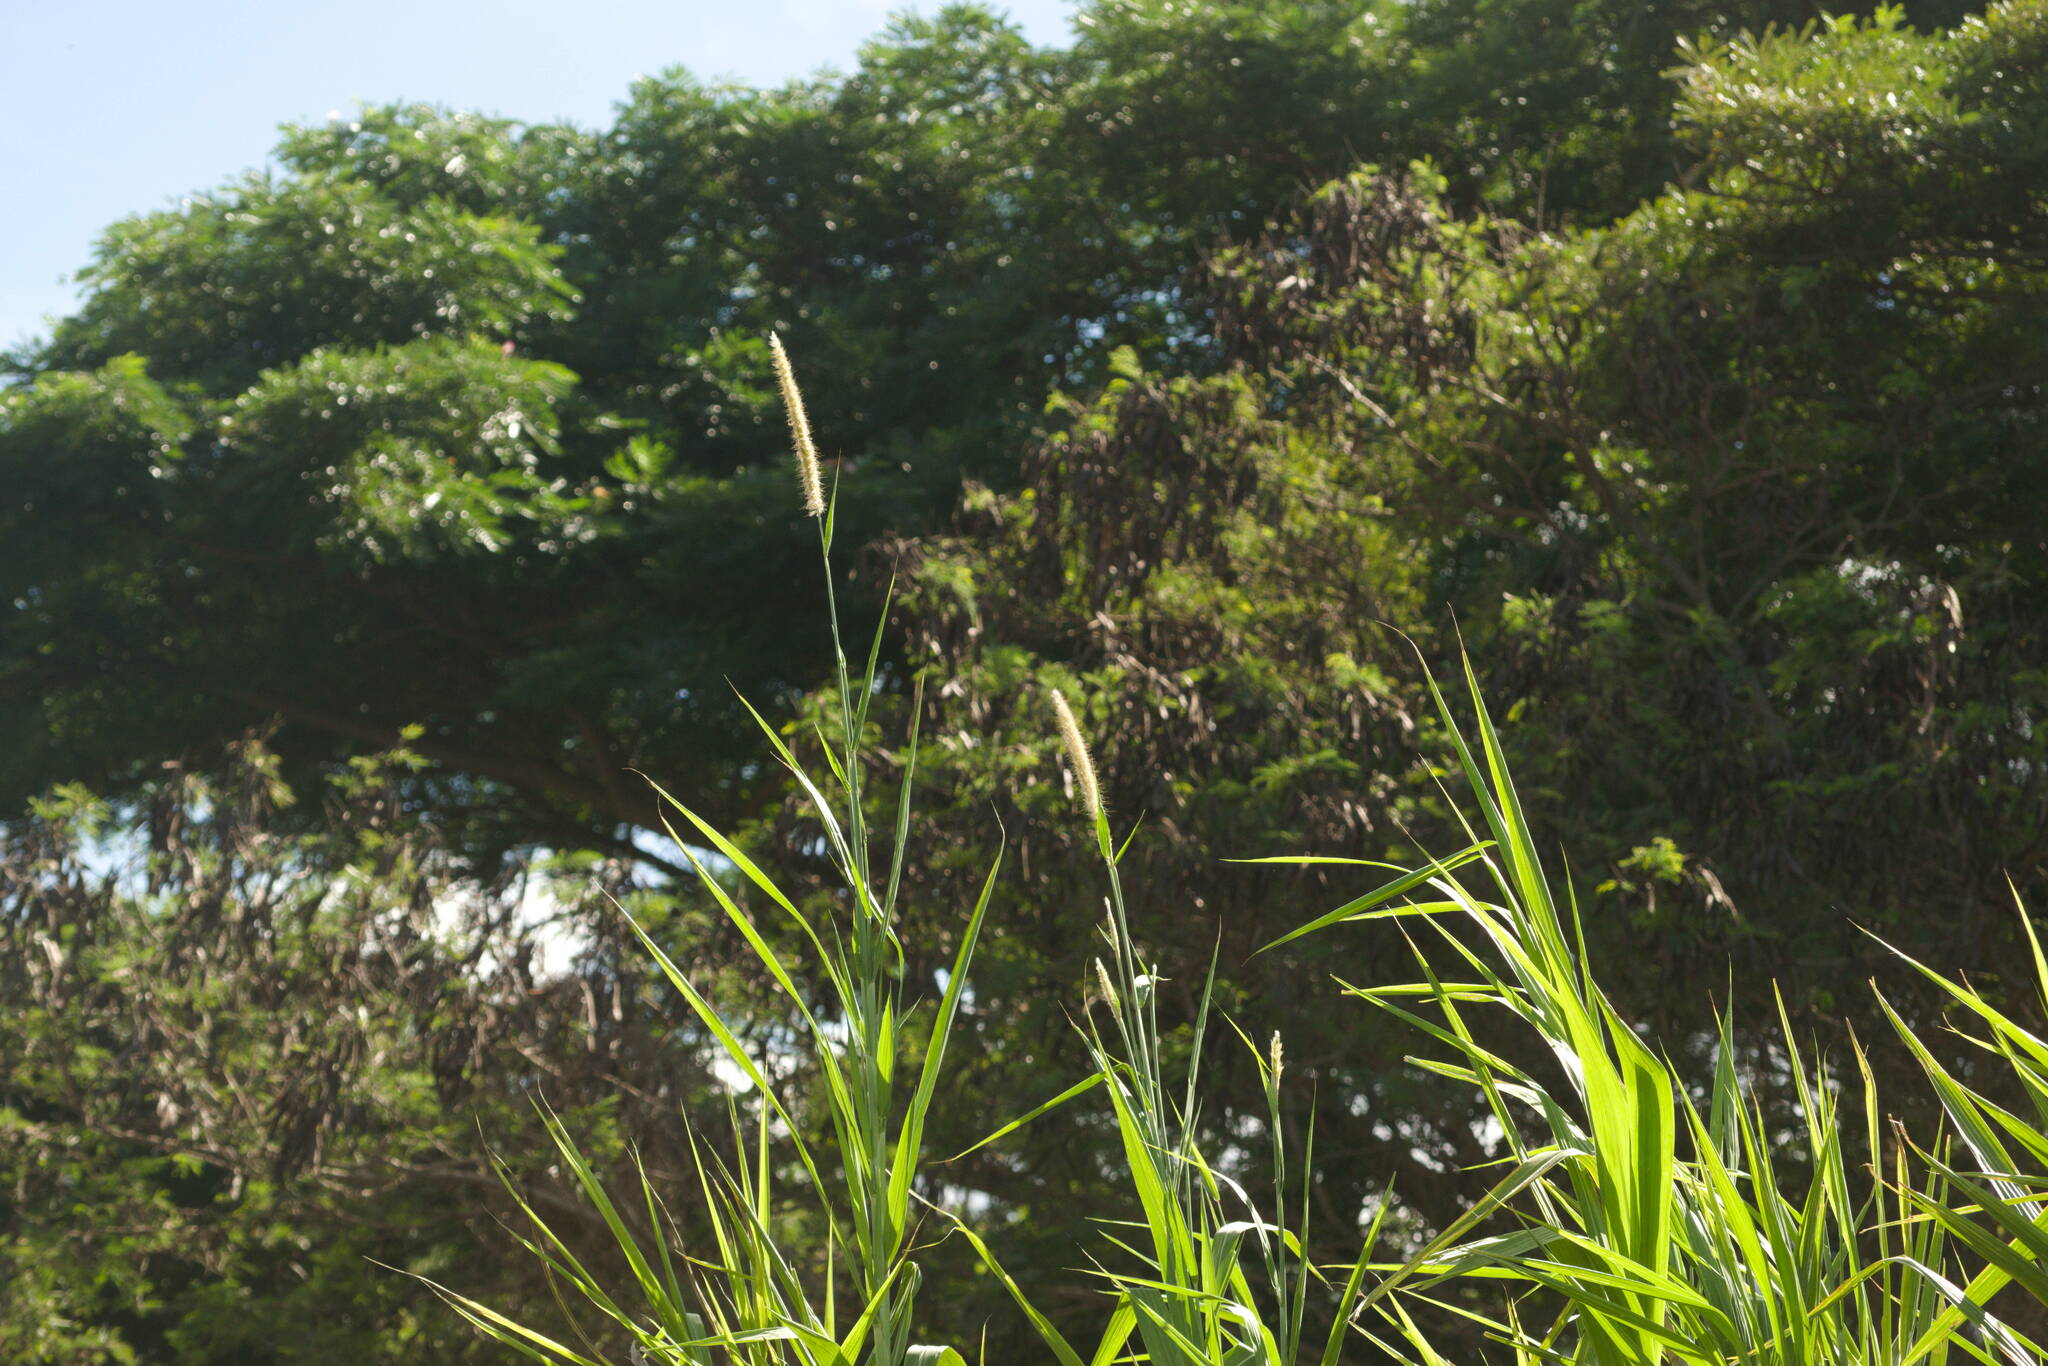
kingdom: Plantae
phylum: Tracheophyta
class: Liliopsida
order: Poales
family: Poaceae
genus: Cenchrus
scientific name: Cenchrus purpureus
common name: Elephant grass
